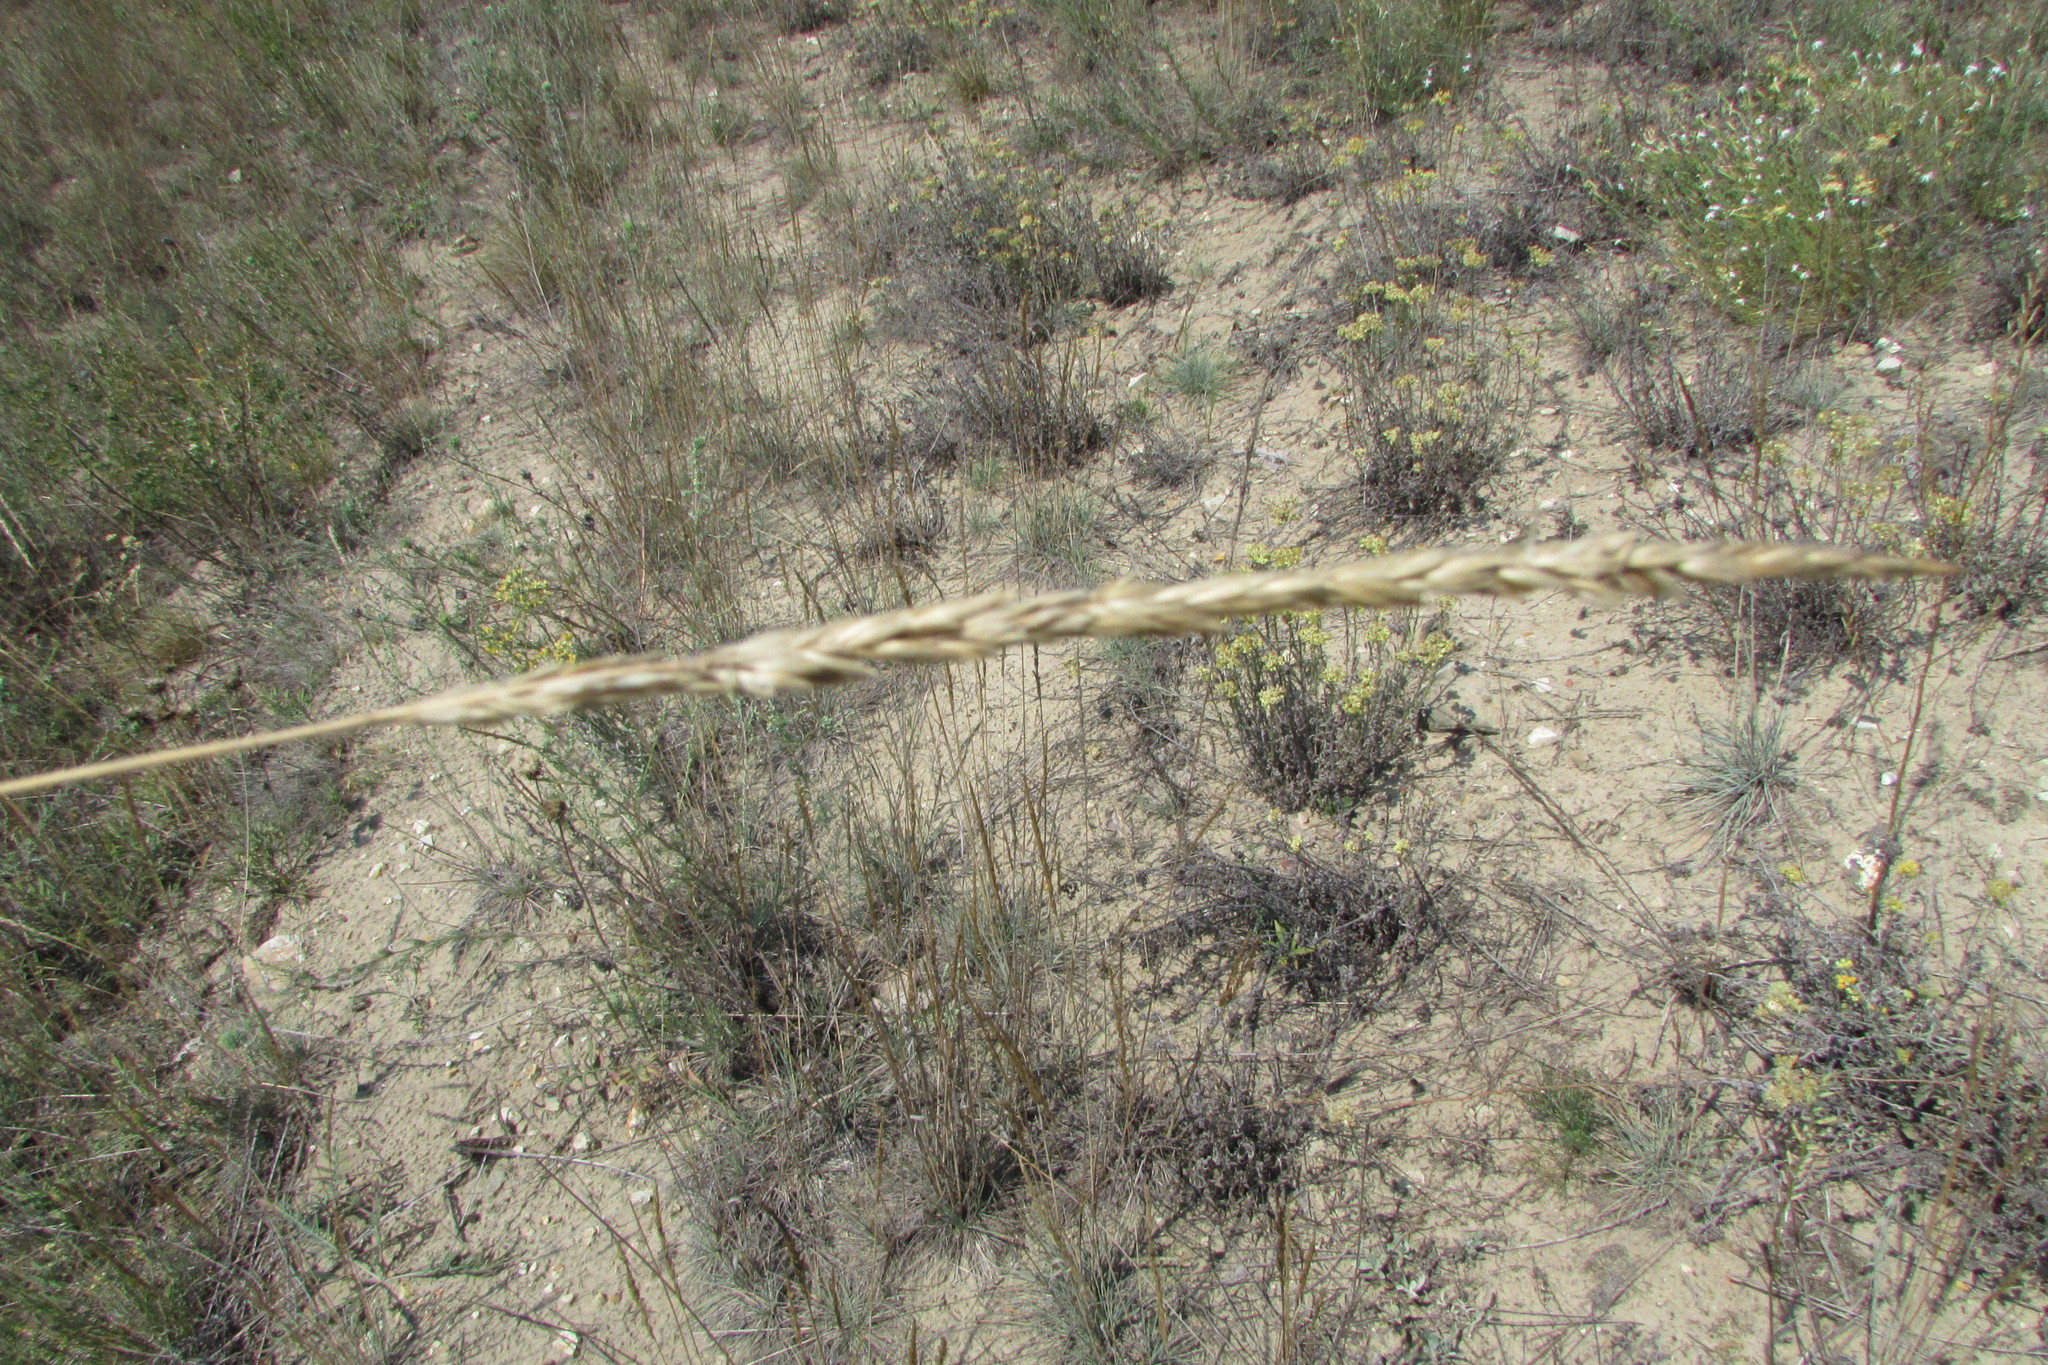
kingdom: Plantae
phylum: Tracheophyta
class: Liliopsida
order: Poales
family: Poaceae
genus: Koeleria
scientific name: Koeleria glauca
